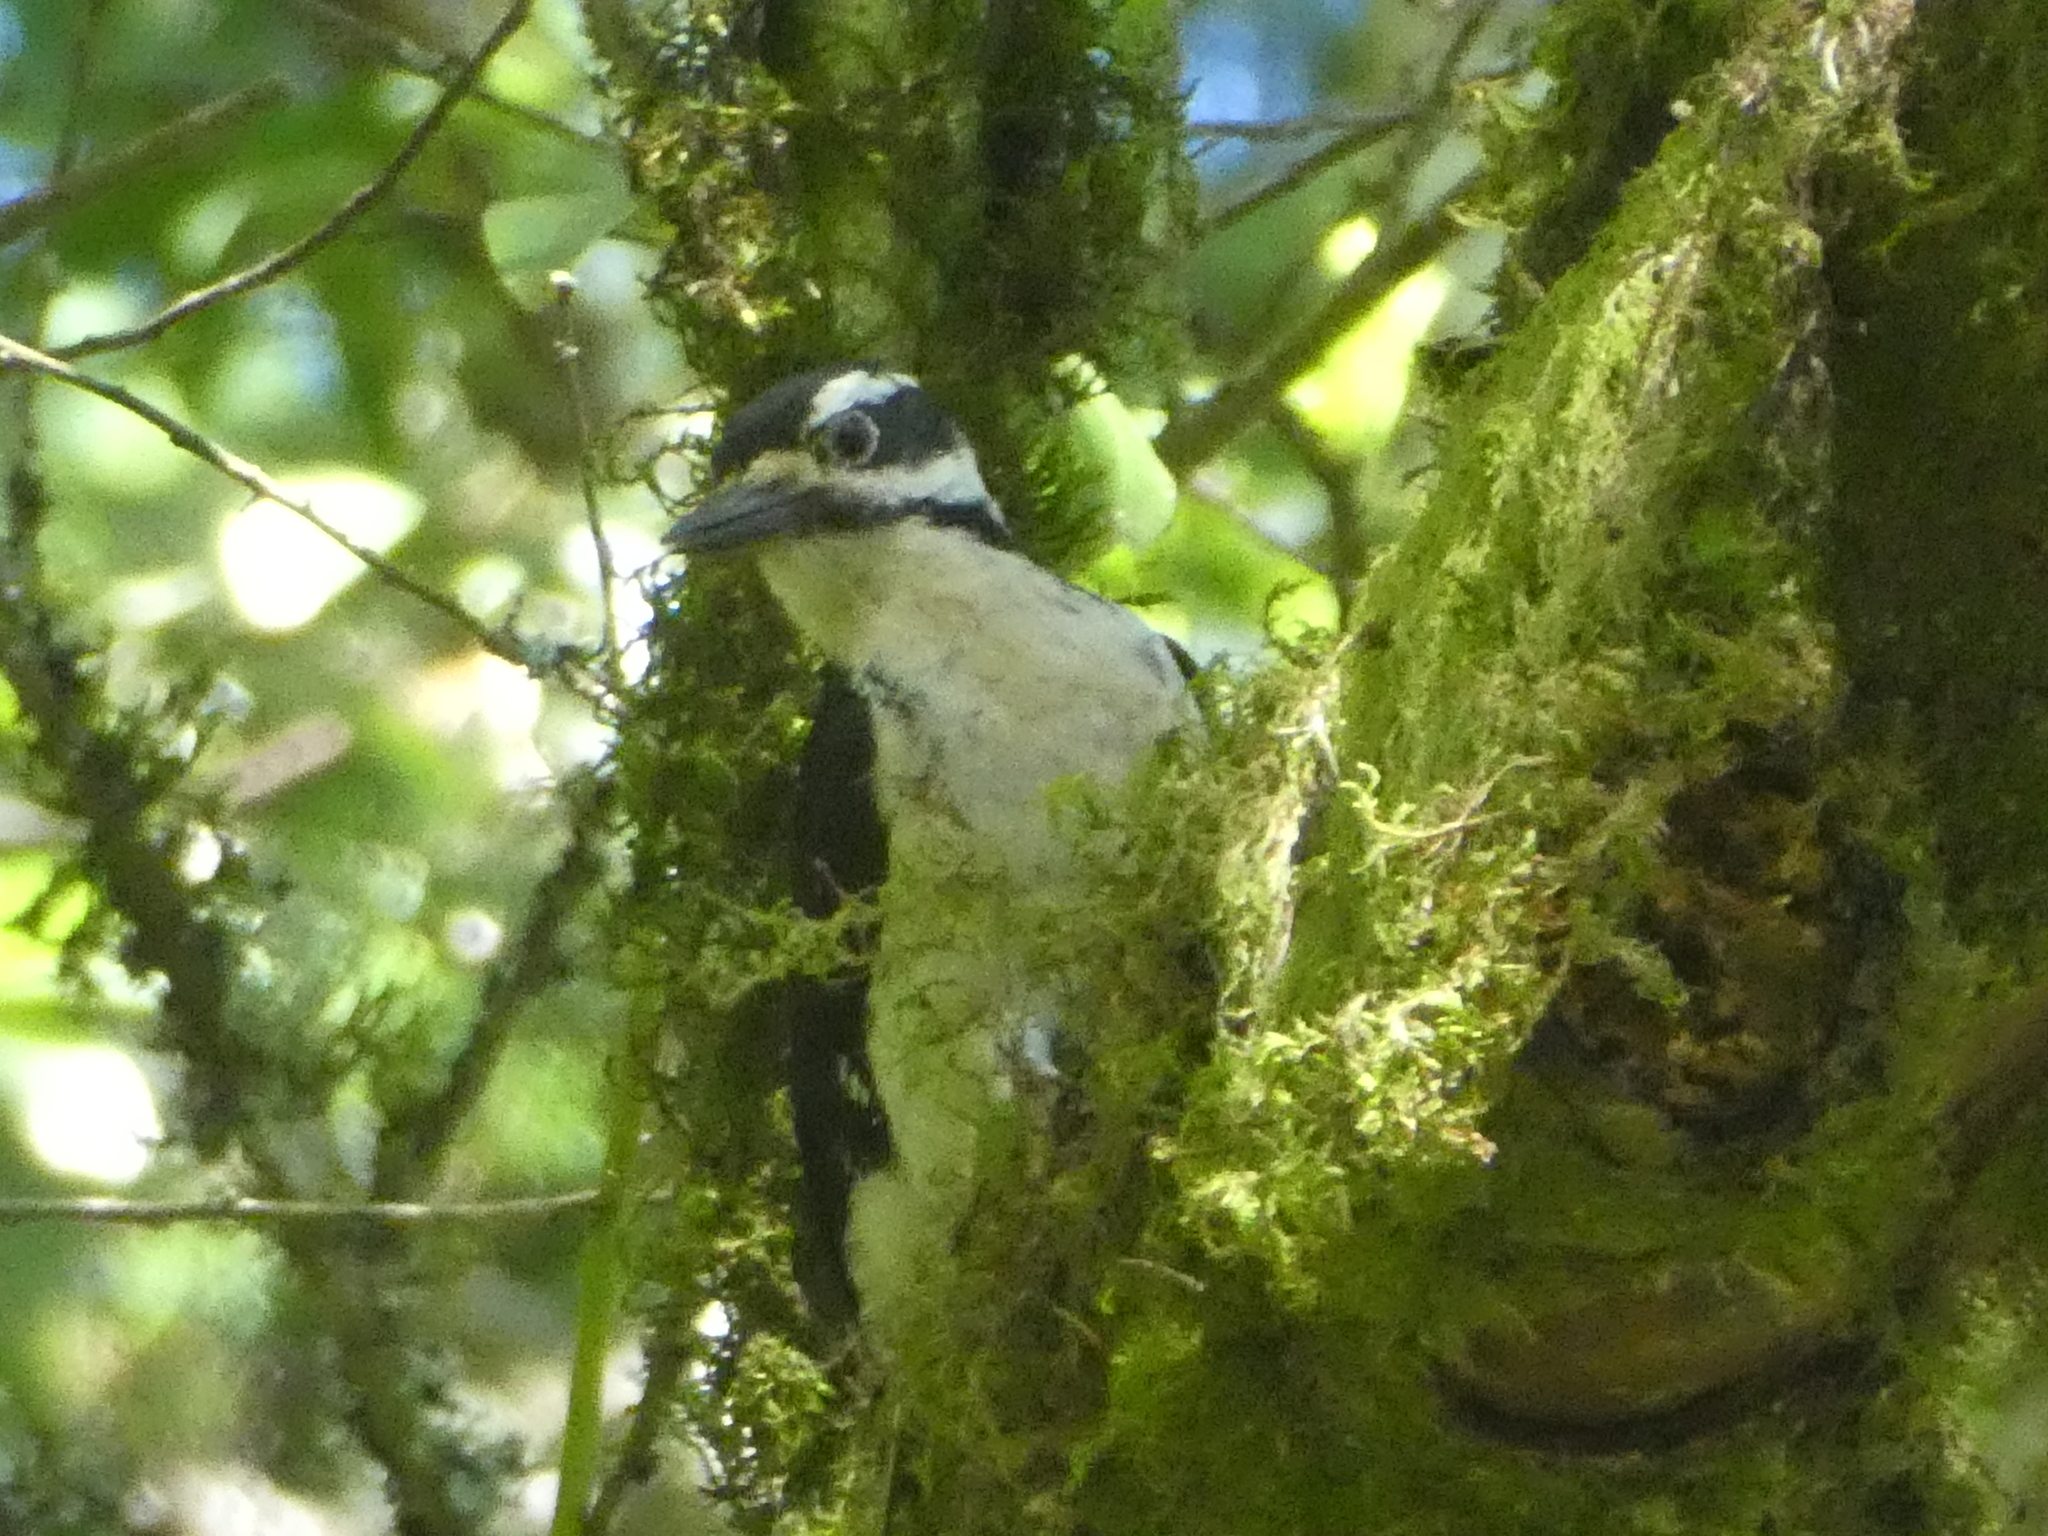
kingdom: Animalia
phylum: Chordata
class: Aves
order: Piciformes
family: Picidae
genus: Leuconotopicus
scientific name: Leuconotopicus villosus
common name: Hairy woodpecker
